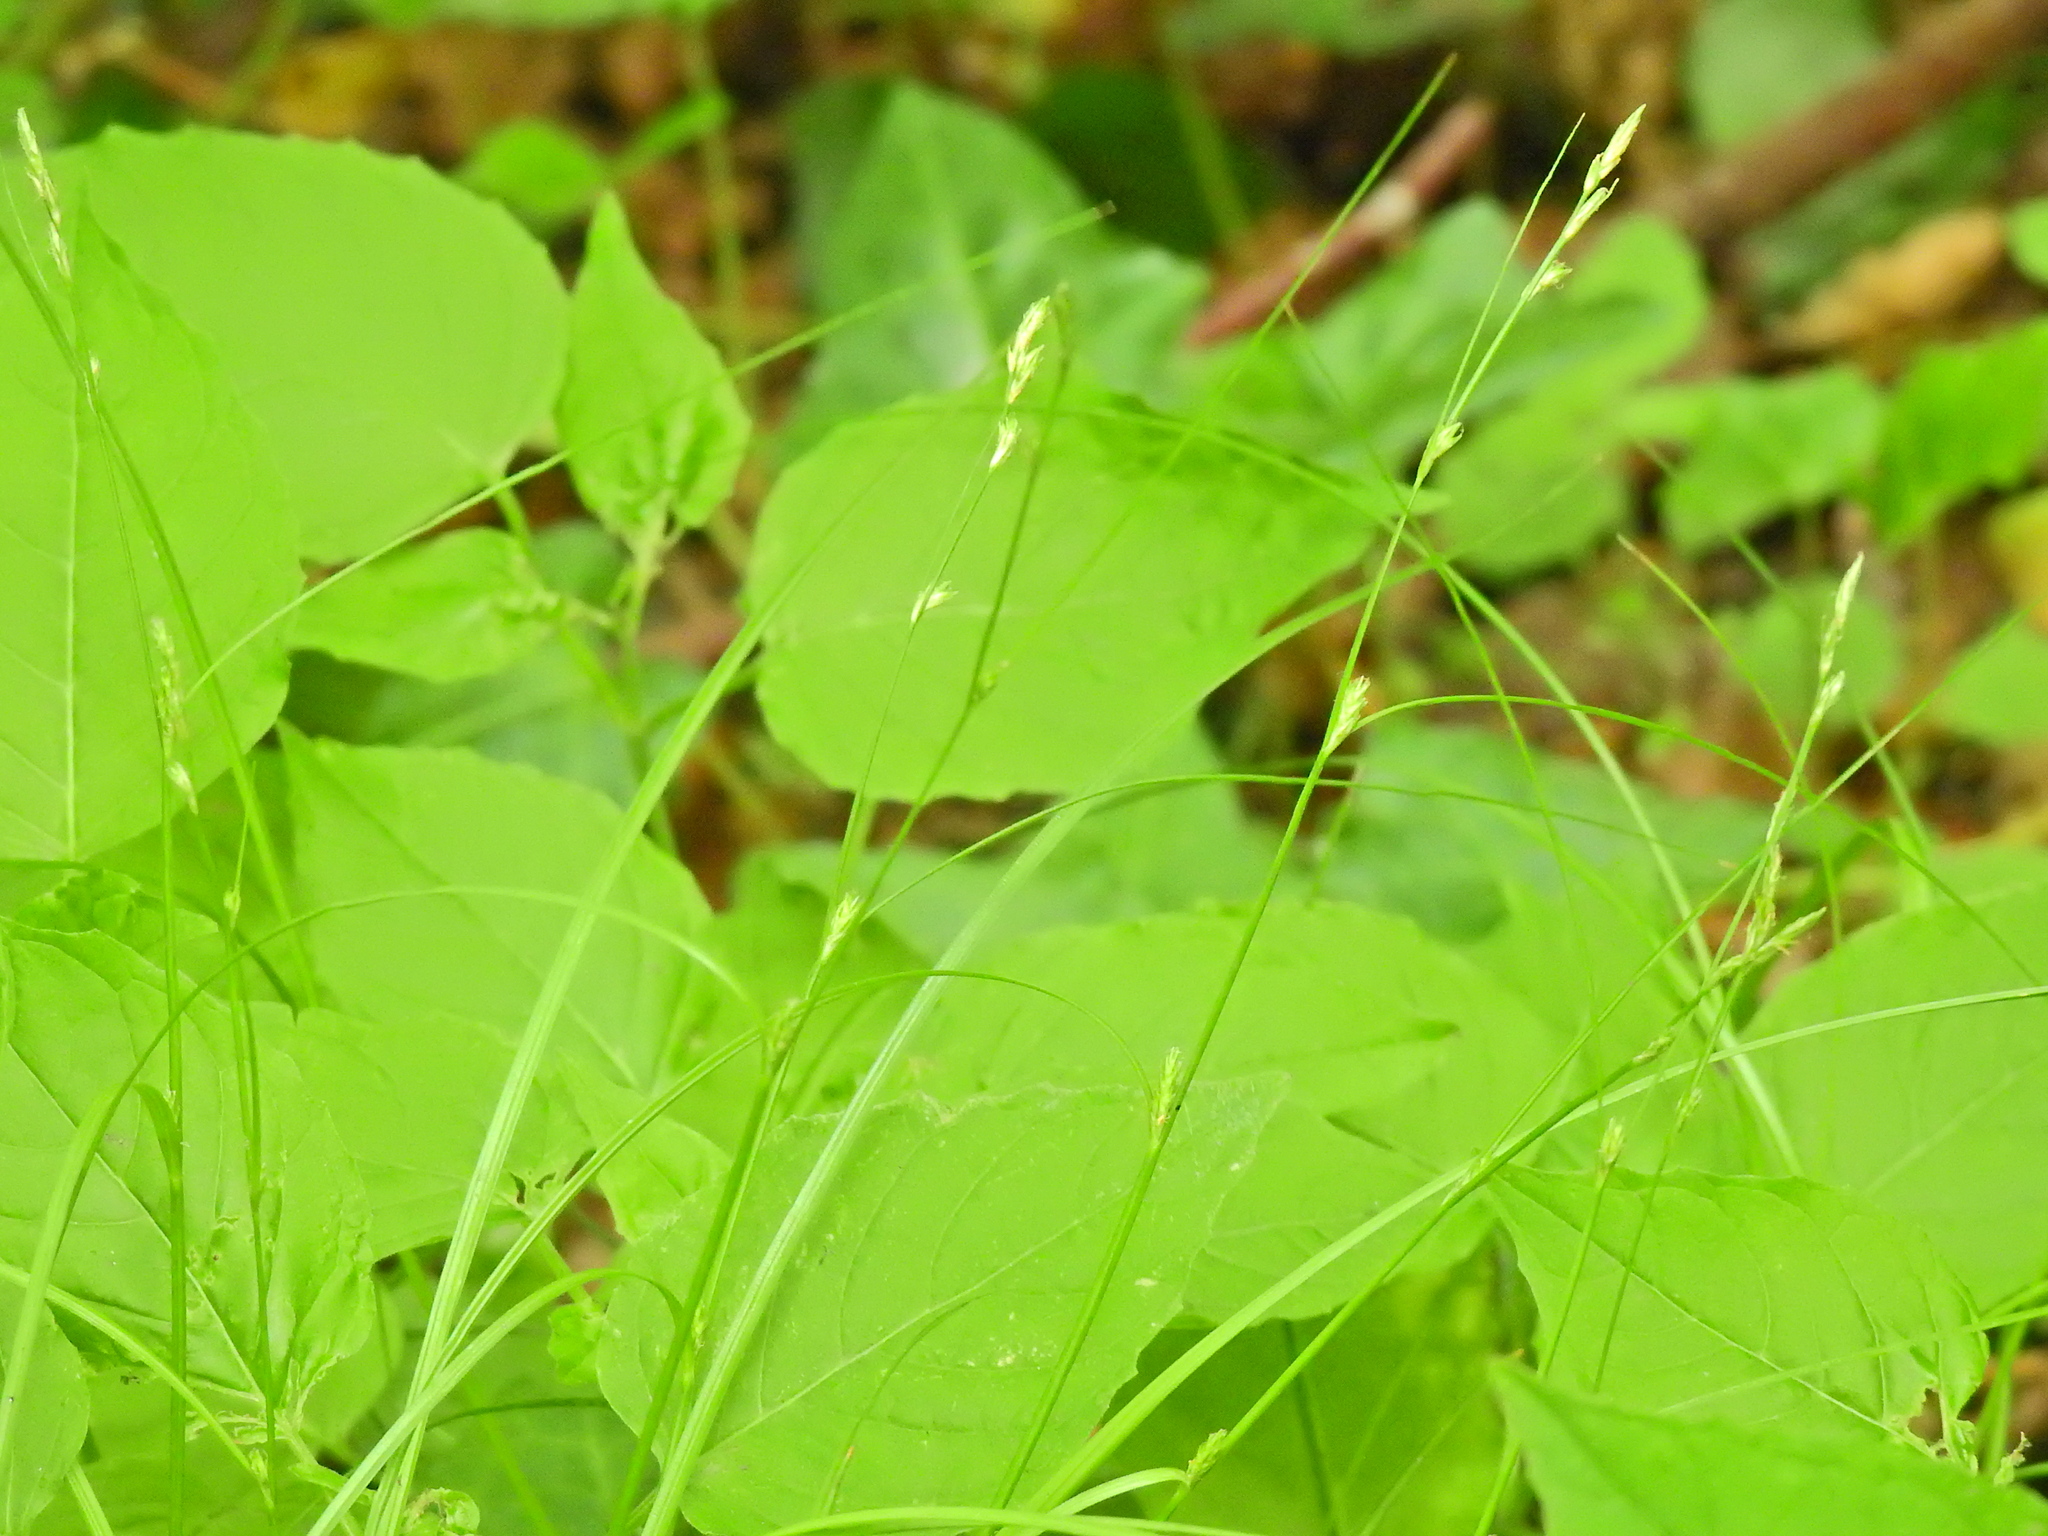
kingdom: Plantae
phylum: Tracheophyta
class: Liliopsida
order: Poales
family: Cyperaceae
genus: Carex
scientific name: Carex remota
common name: Remote sedge
